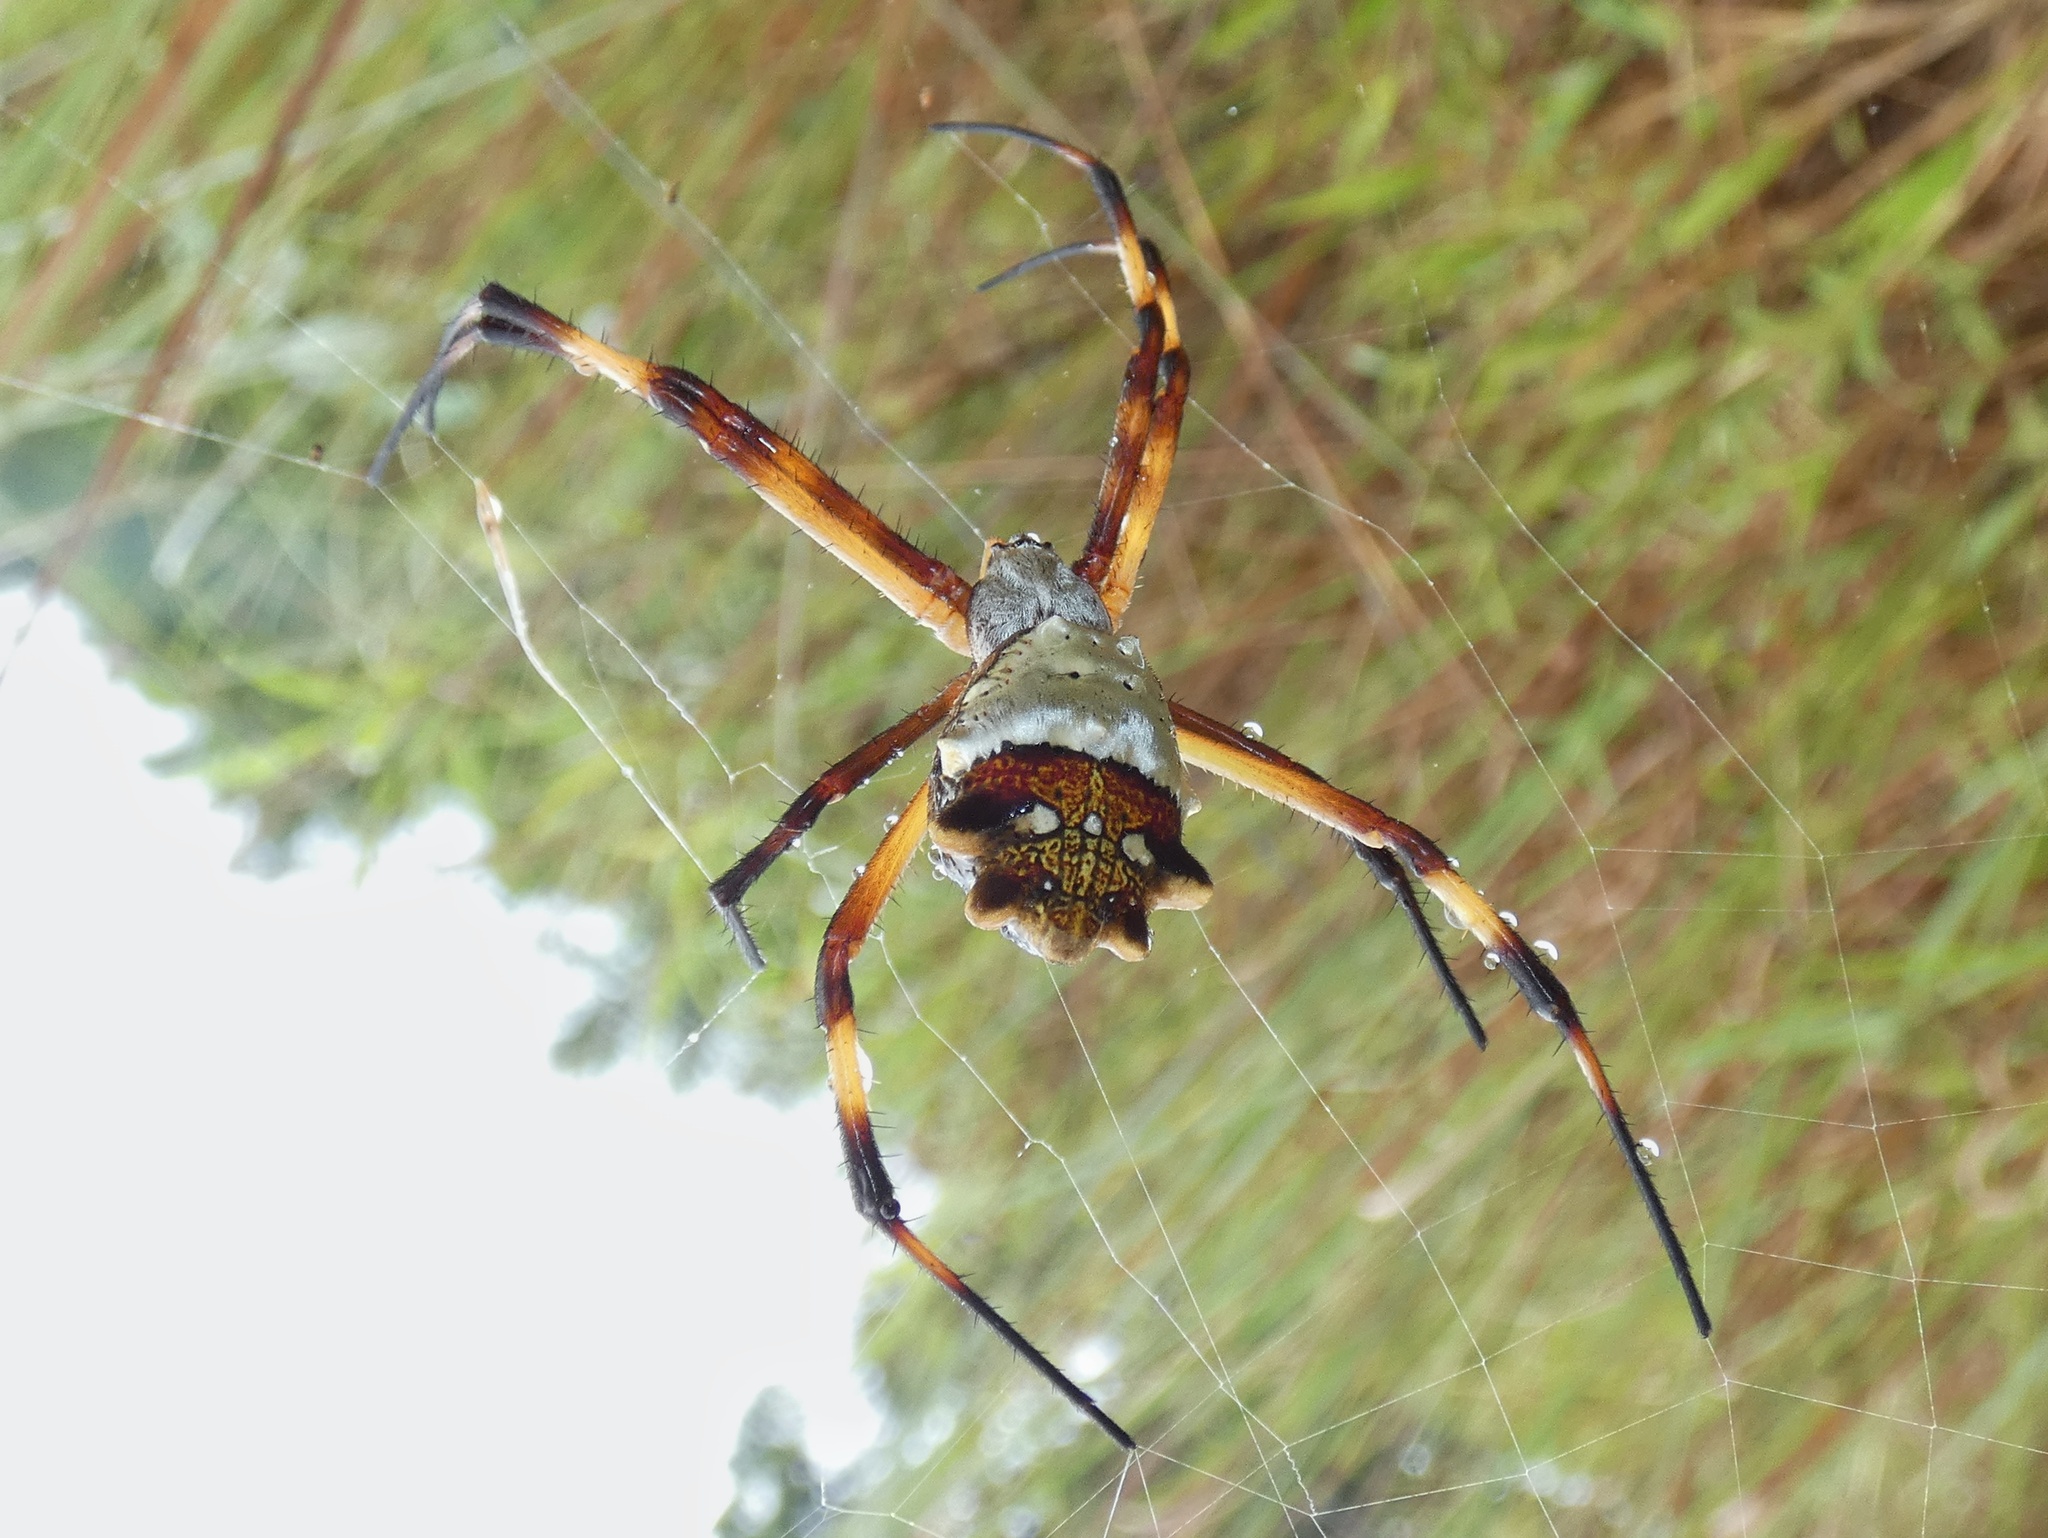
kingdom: Animalia
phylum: Arthropoda
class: Arachnida
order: Araneae
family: Araneidae
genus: Argiope
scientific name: Argiope argentata
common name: Orb weavers
